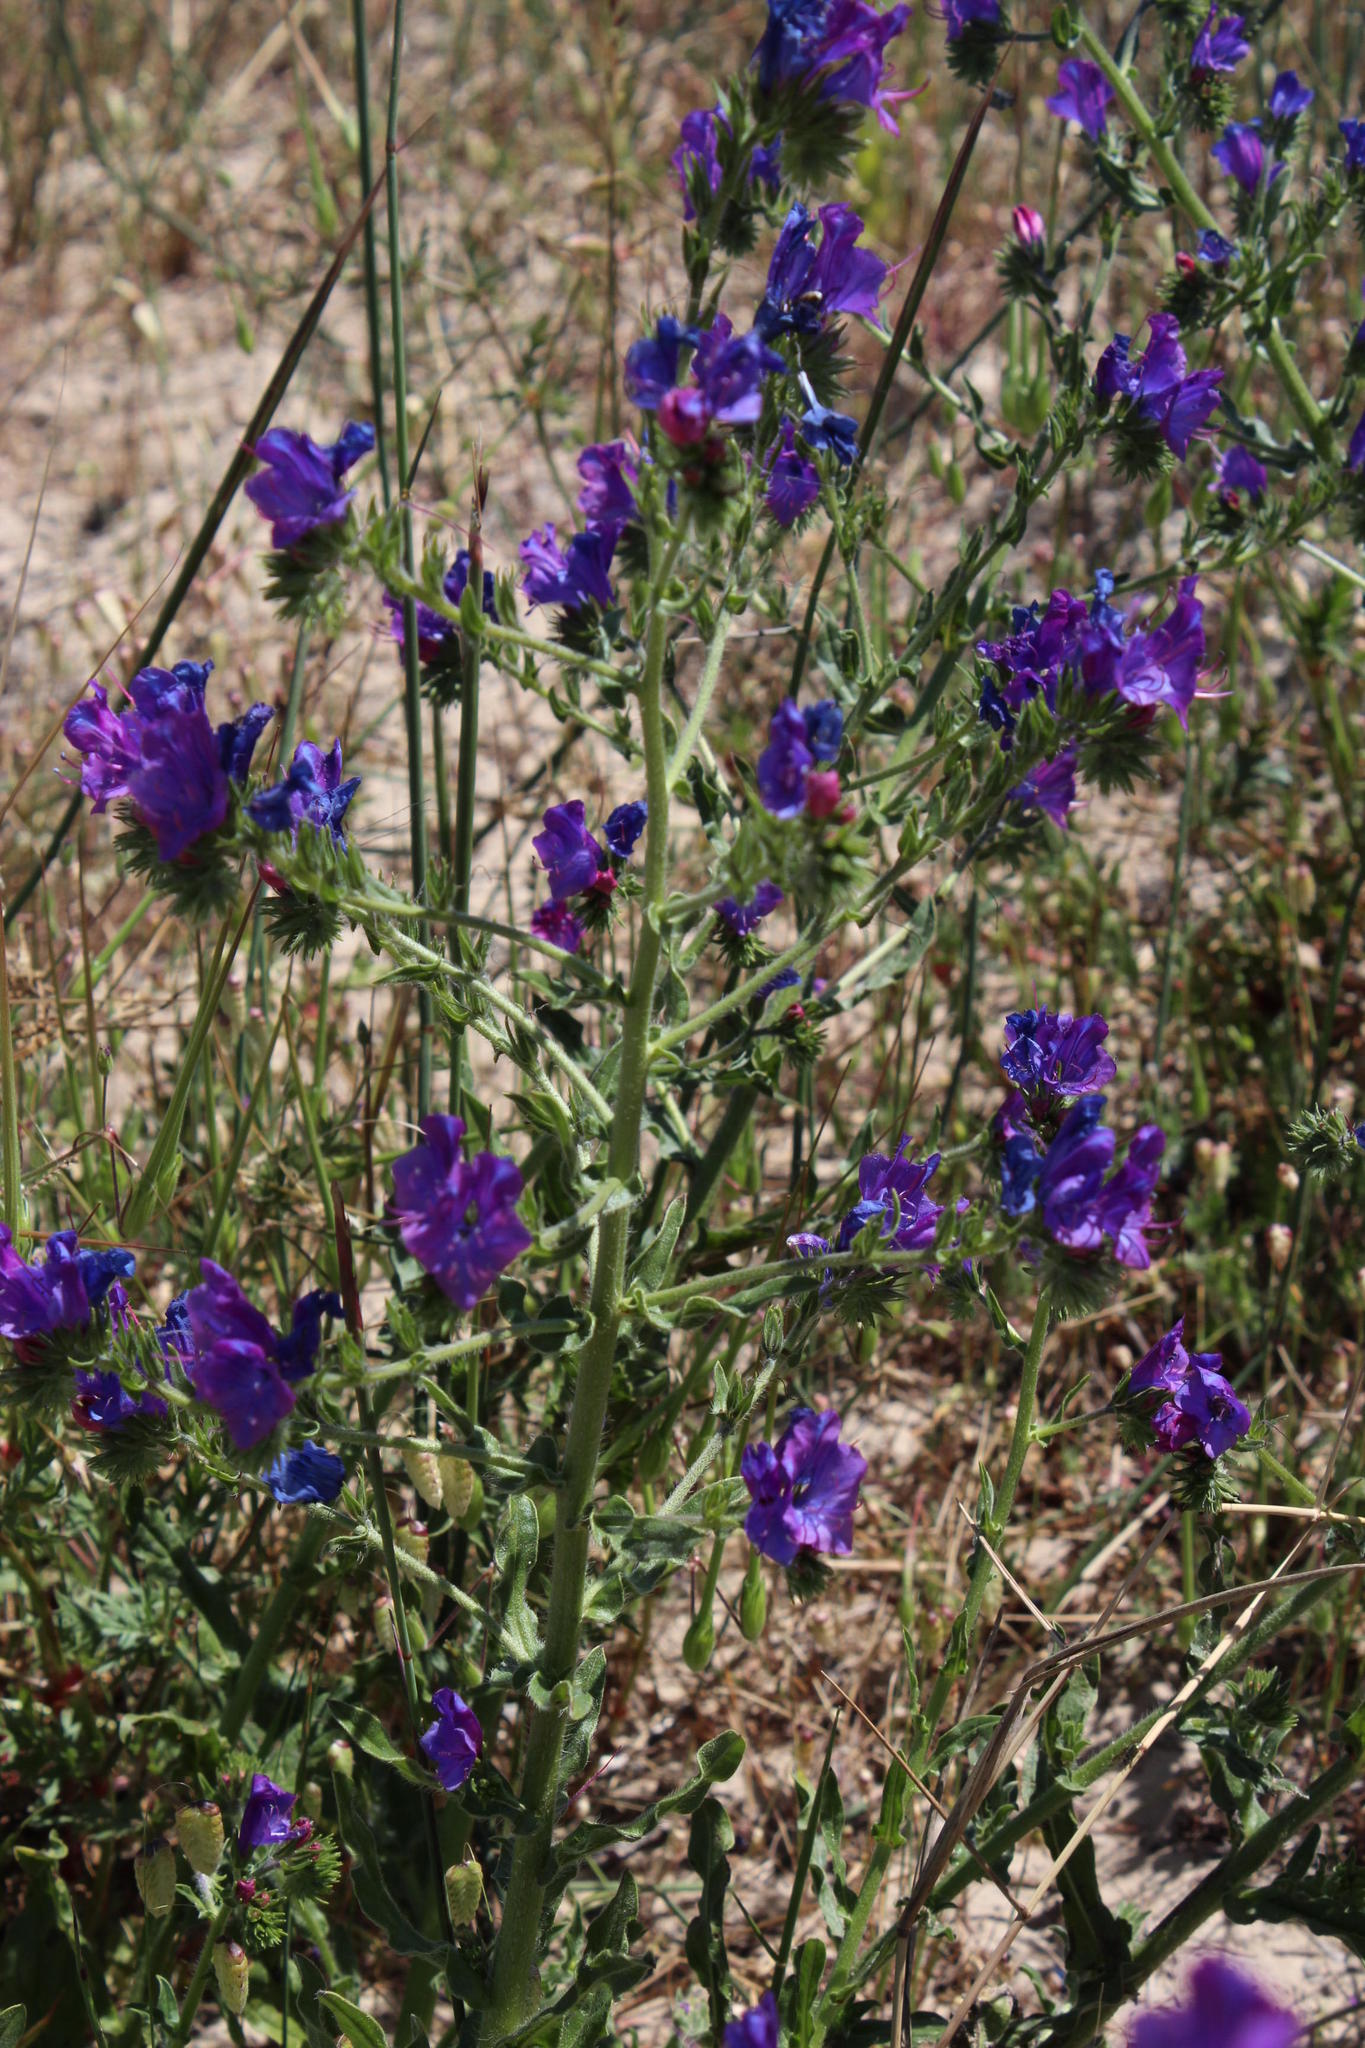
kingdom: Plantae
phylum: Tracheophyta
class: Magnoliopsida
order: Boraginales
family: Boraginaceae
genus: Echium
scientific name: Echium plantagineum
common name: Purple viper's-bugloss
